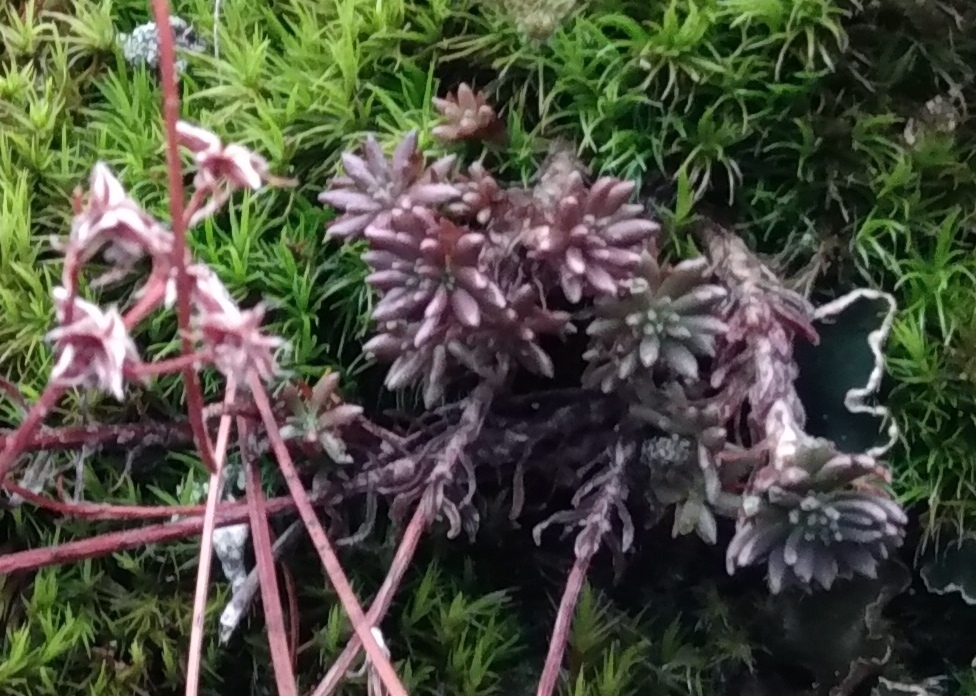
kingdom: Plantae
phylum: Tracheophyta
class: Magnoliopsida
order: Saxifragales
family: Crassulaceae
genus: Sedum
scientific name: Sedum stenopetalum
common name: Narrow-petaled stonecrop
